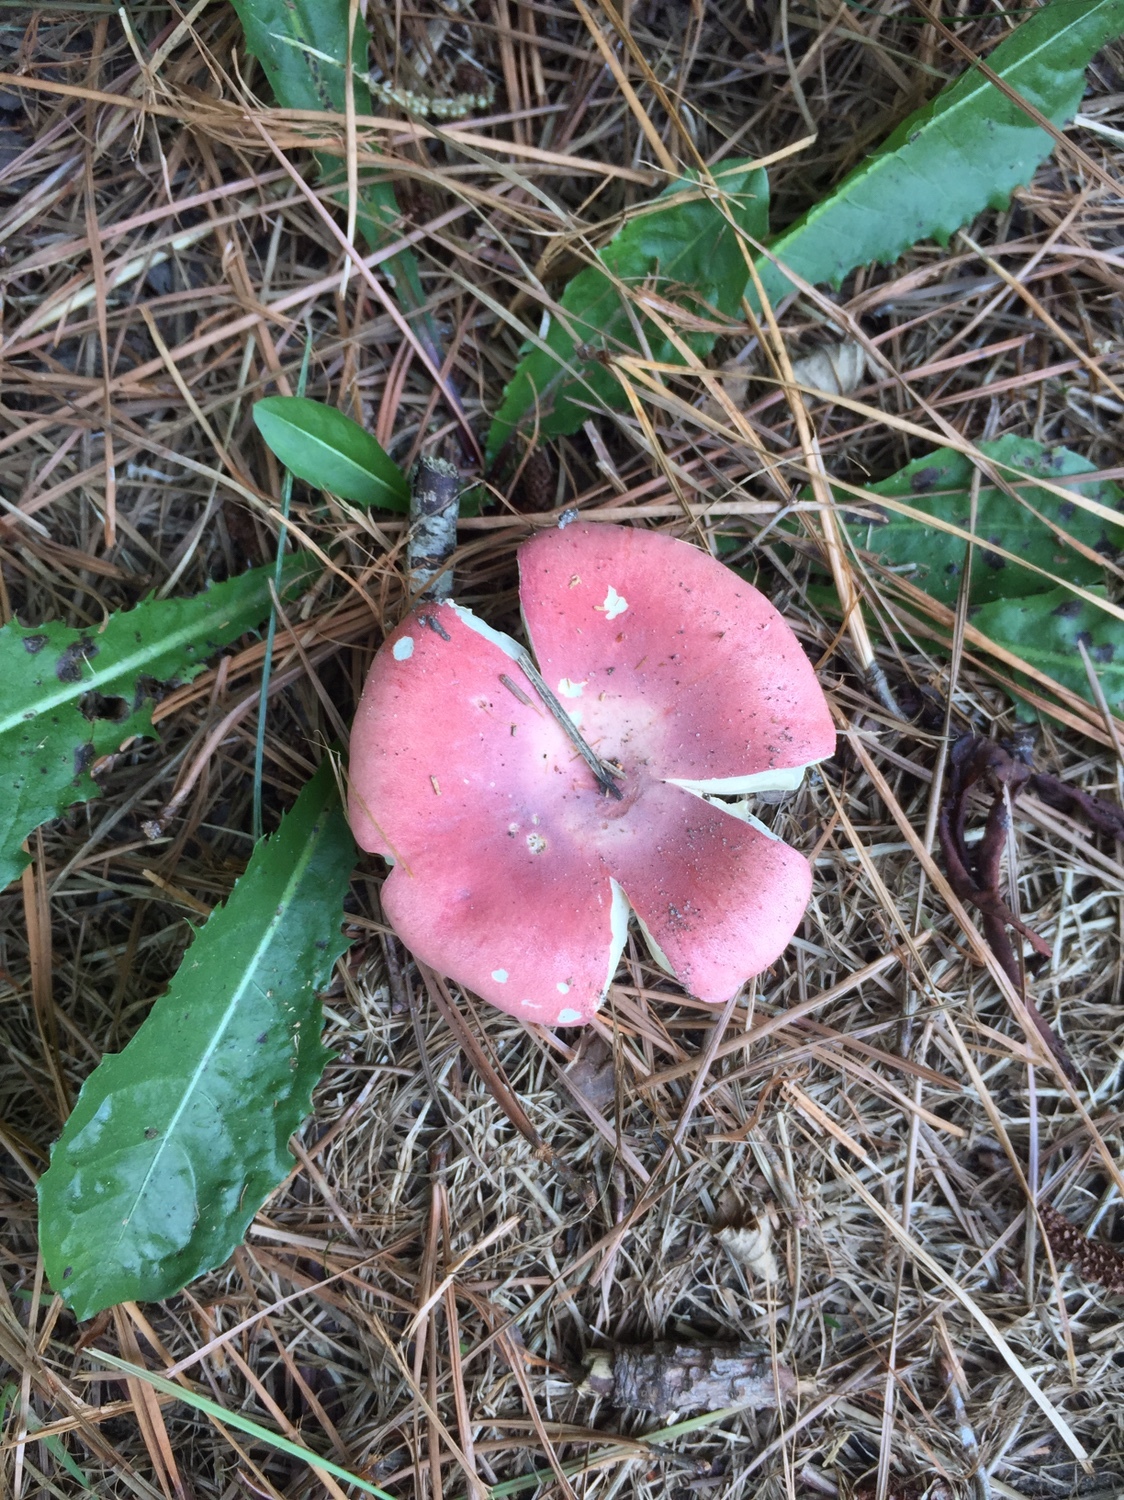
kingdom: Fungi
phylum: Basidiomycota
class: Agaricomycetes
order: Russulales
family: Russulaceae
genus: Russula
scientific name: Russula
